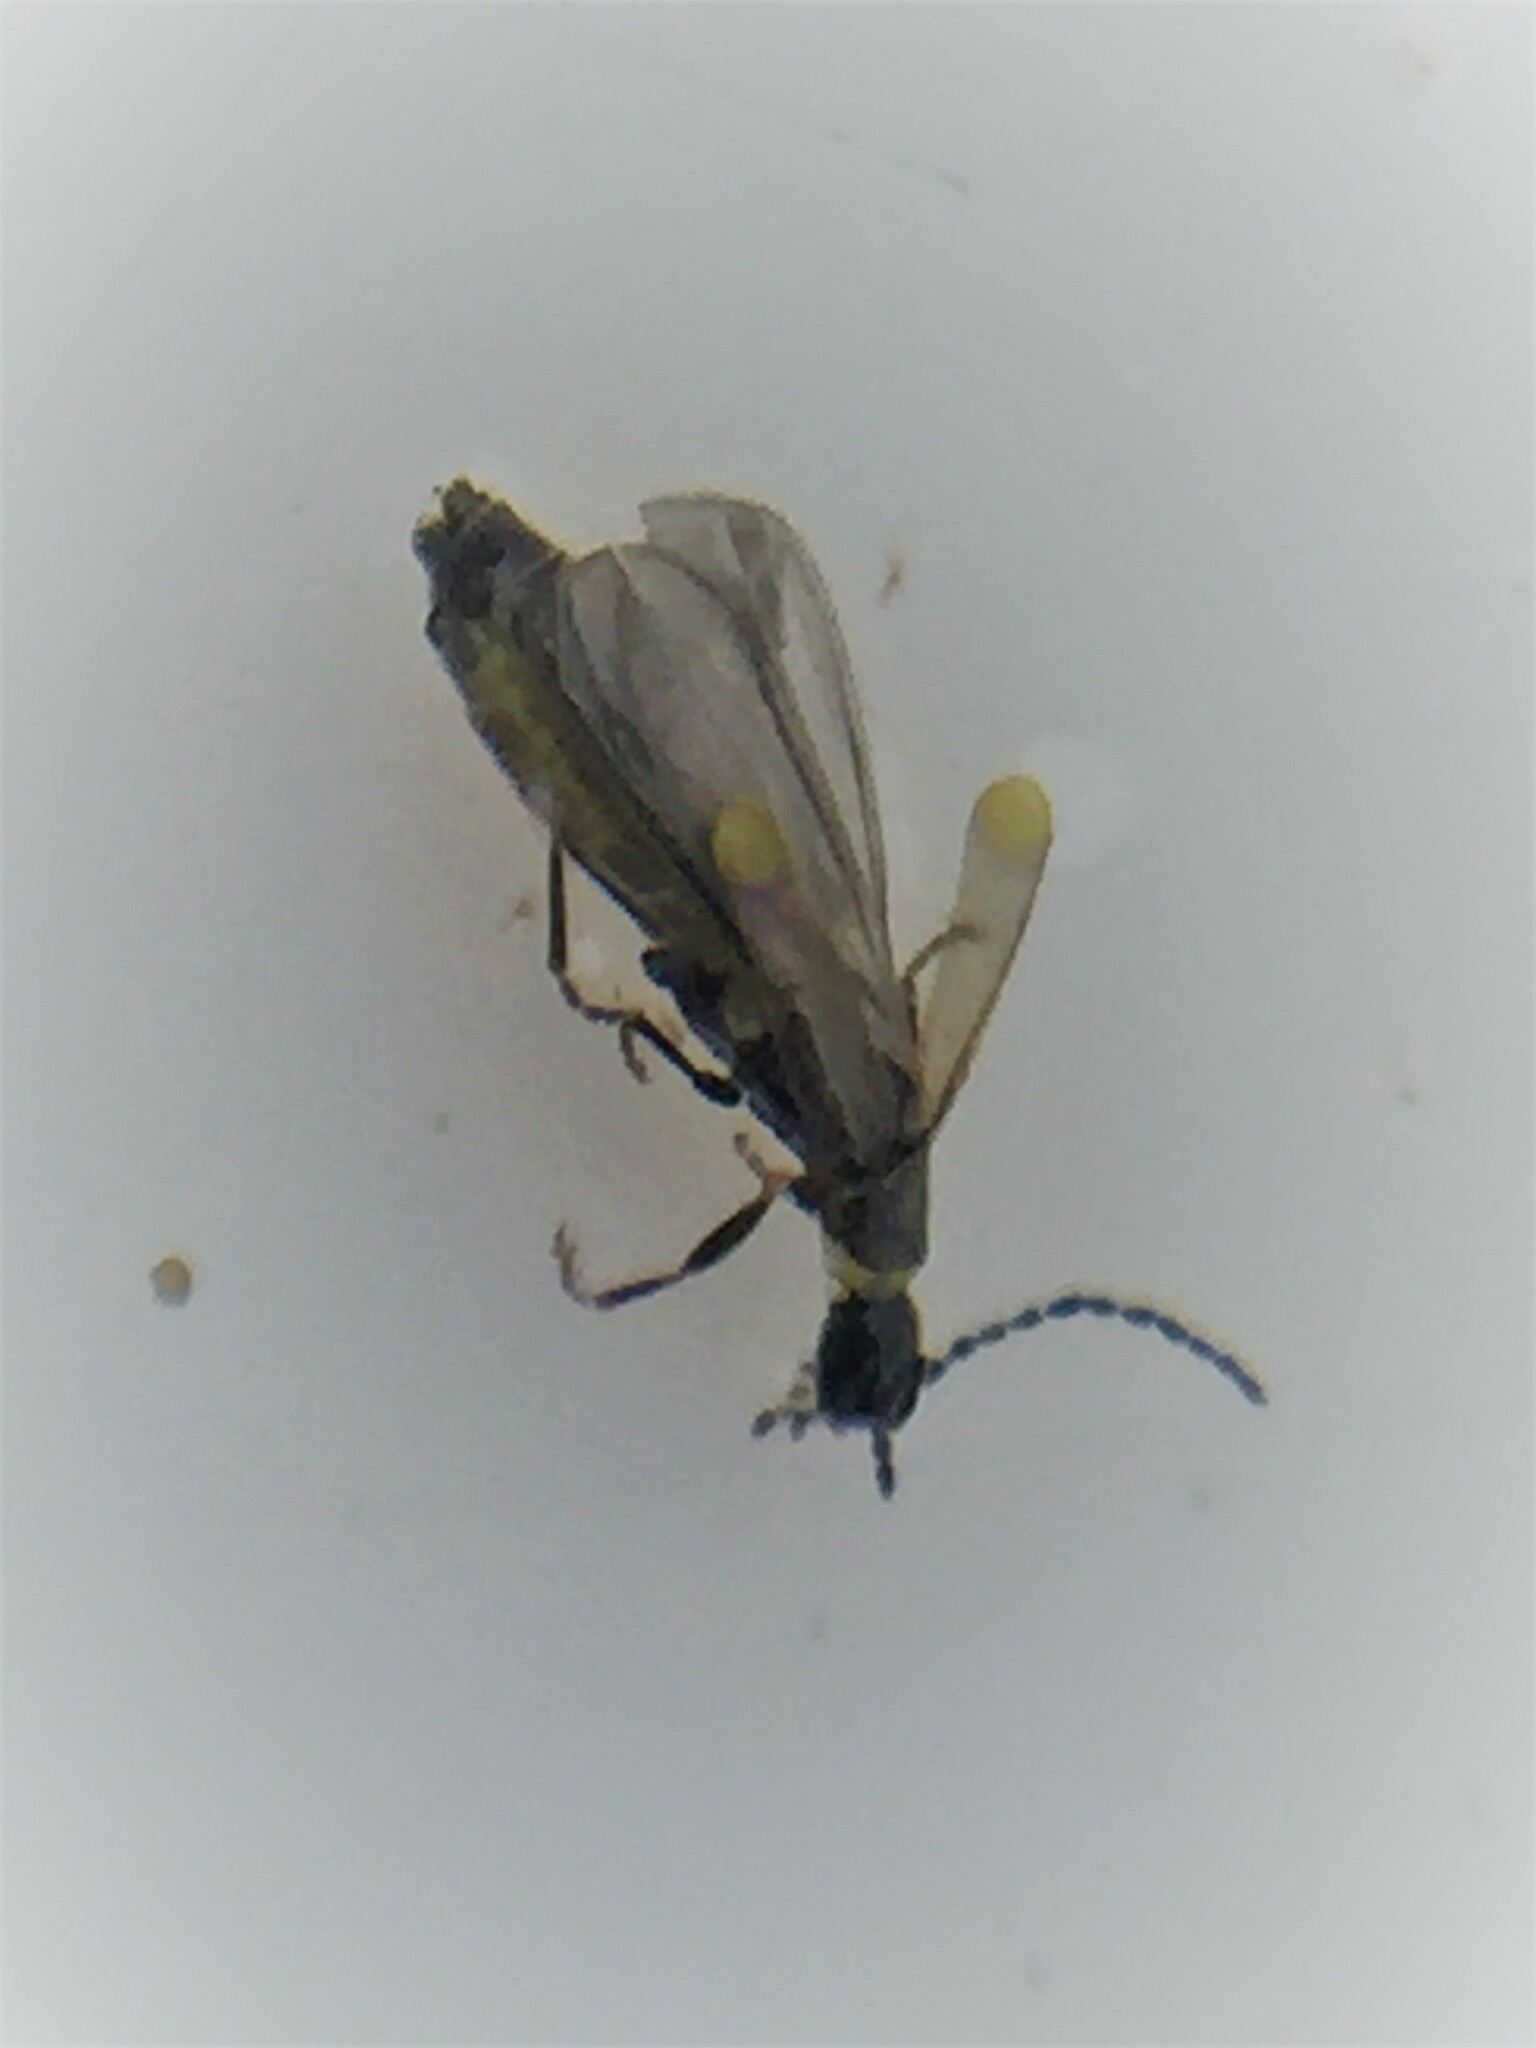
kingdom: Animalia
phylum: Arthropoda
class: Insecta
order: Coleoptera
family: Cantharidae
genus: Malthodes
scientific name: Malthodes pumilus
